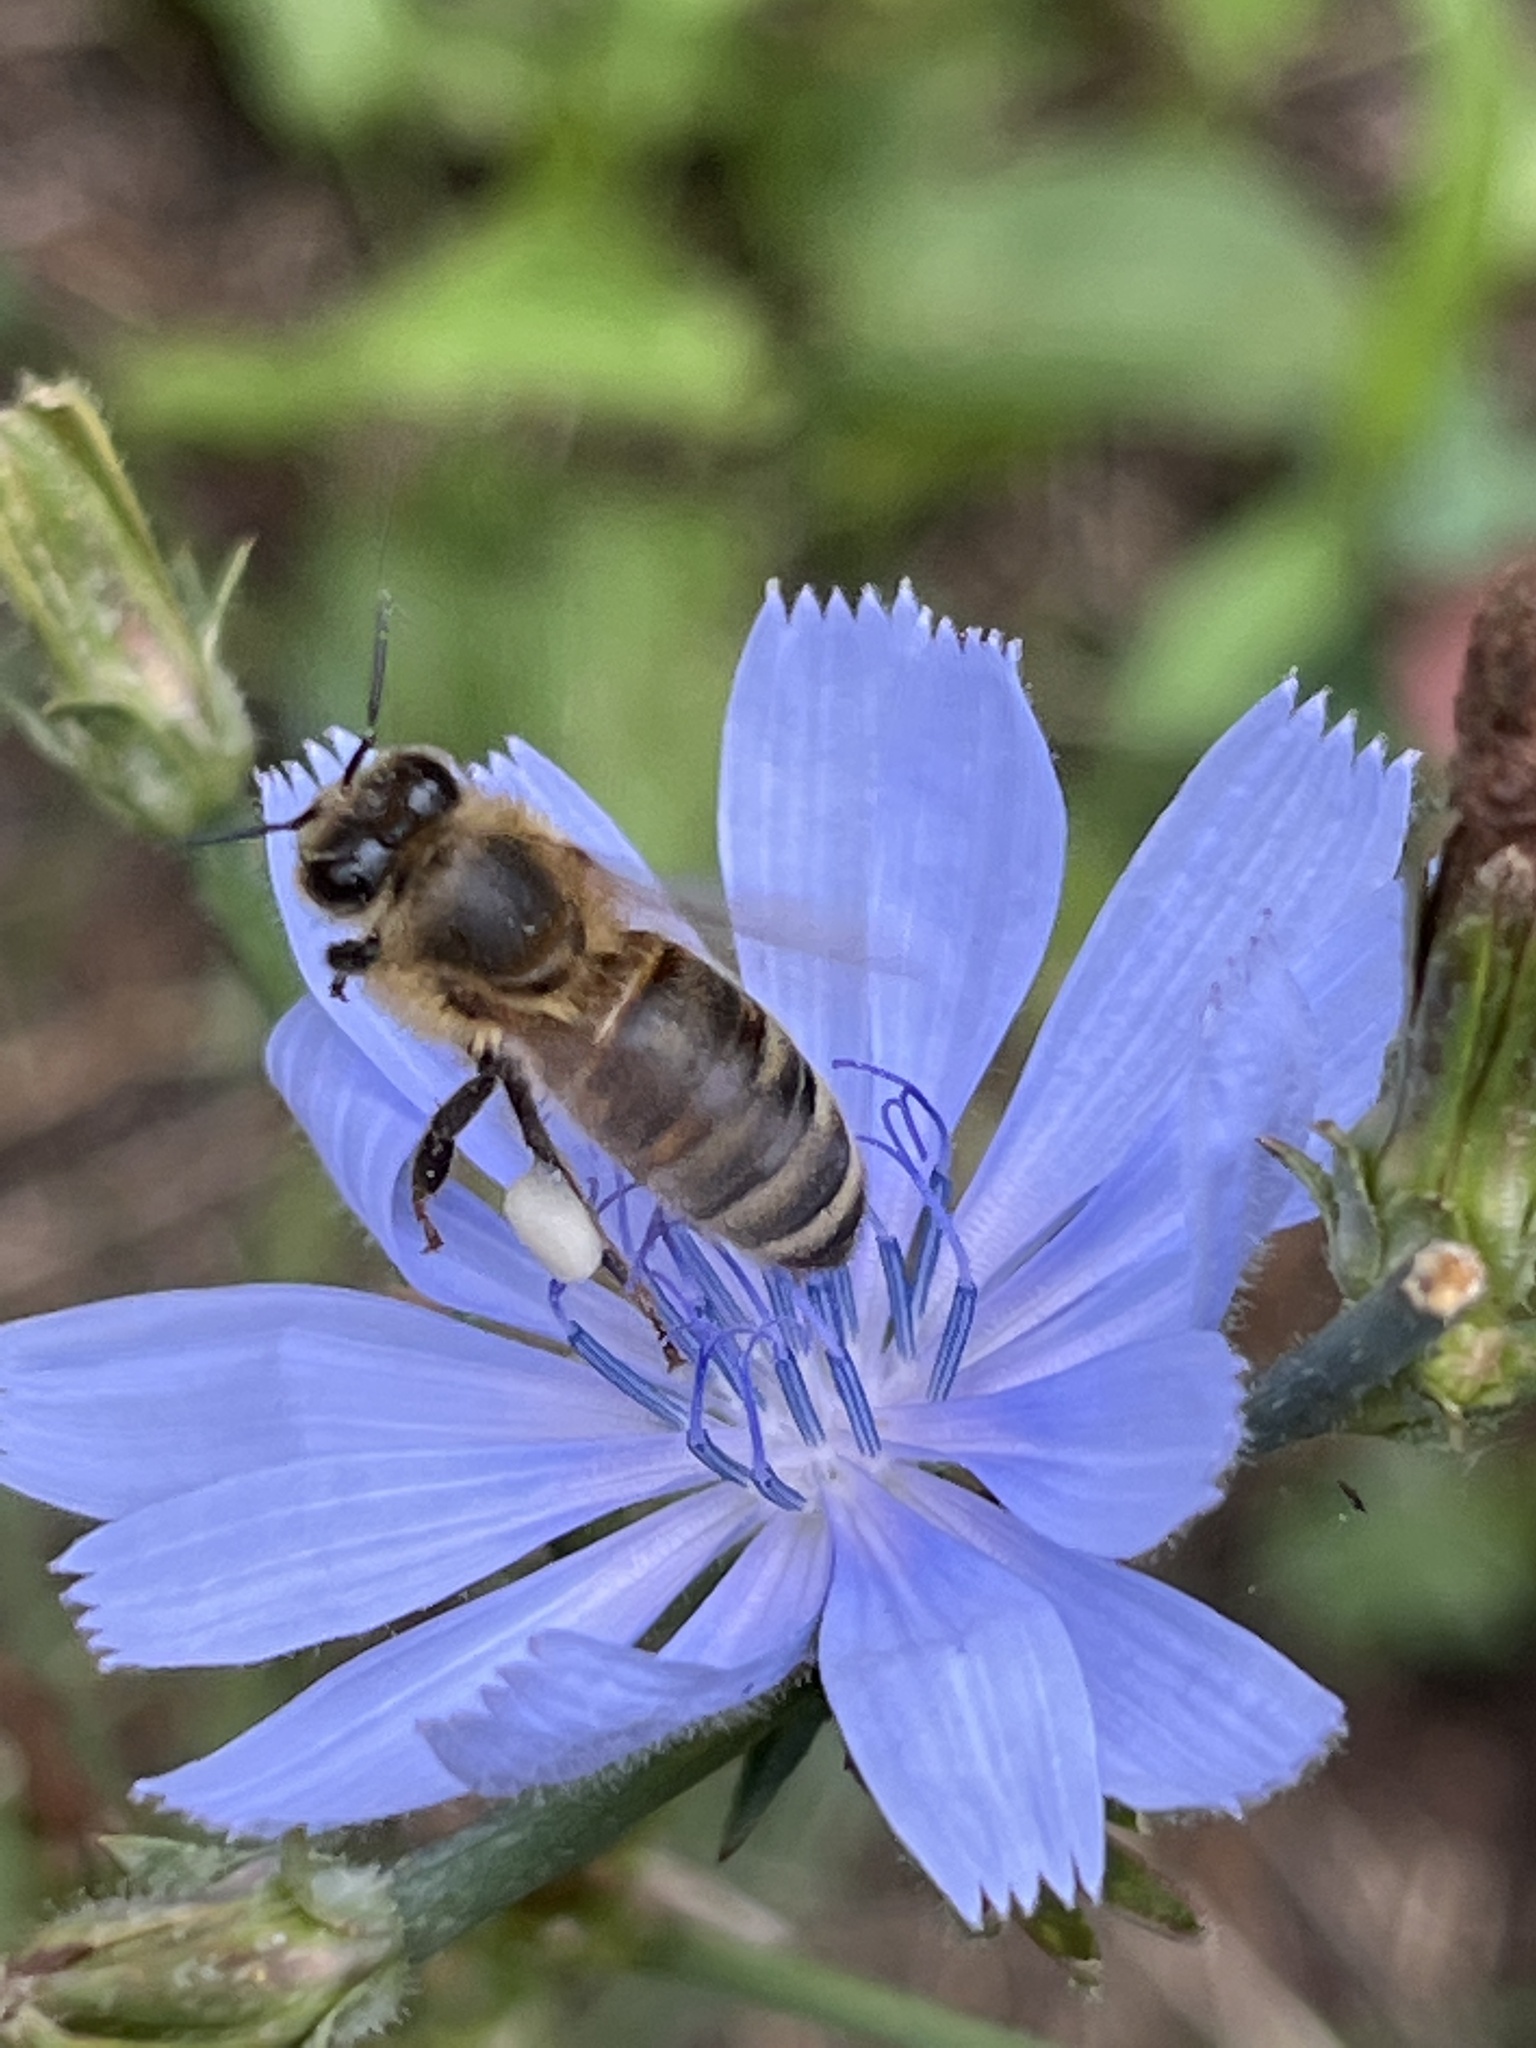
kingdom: Animalia
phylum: Arthropoda
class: Insecta
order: Hymenoptera
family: Apidae
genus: Apis
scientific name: Apis mellifera
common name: Honey bee
